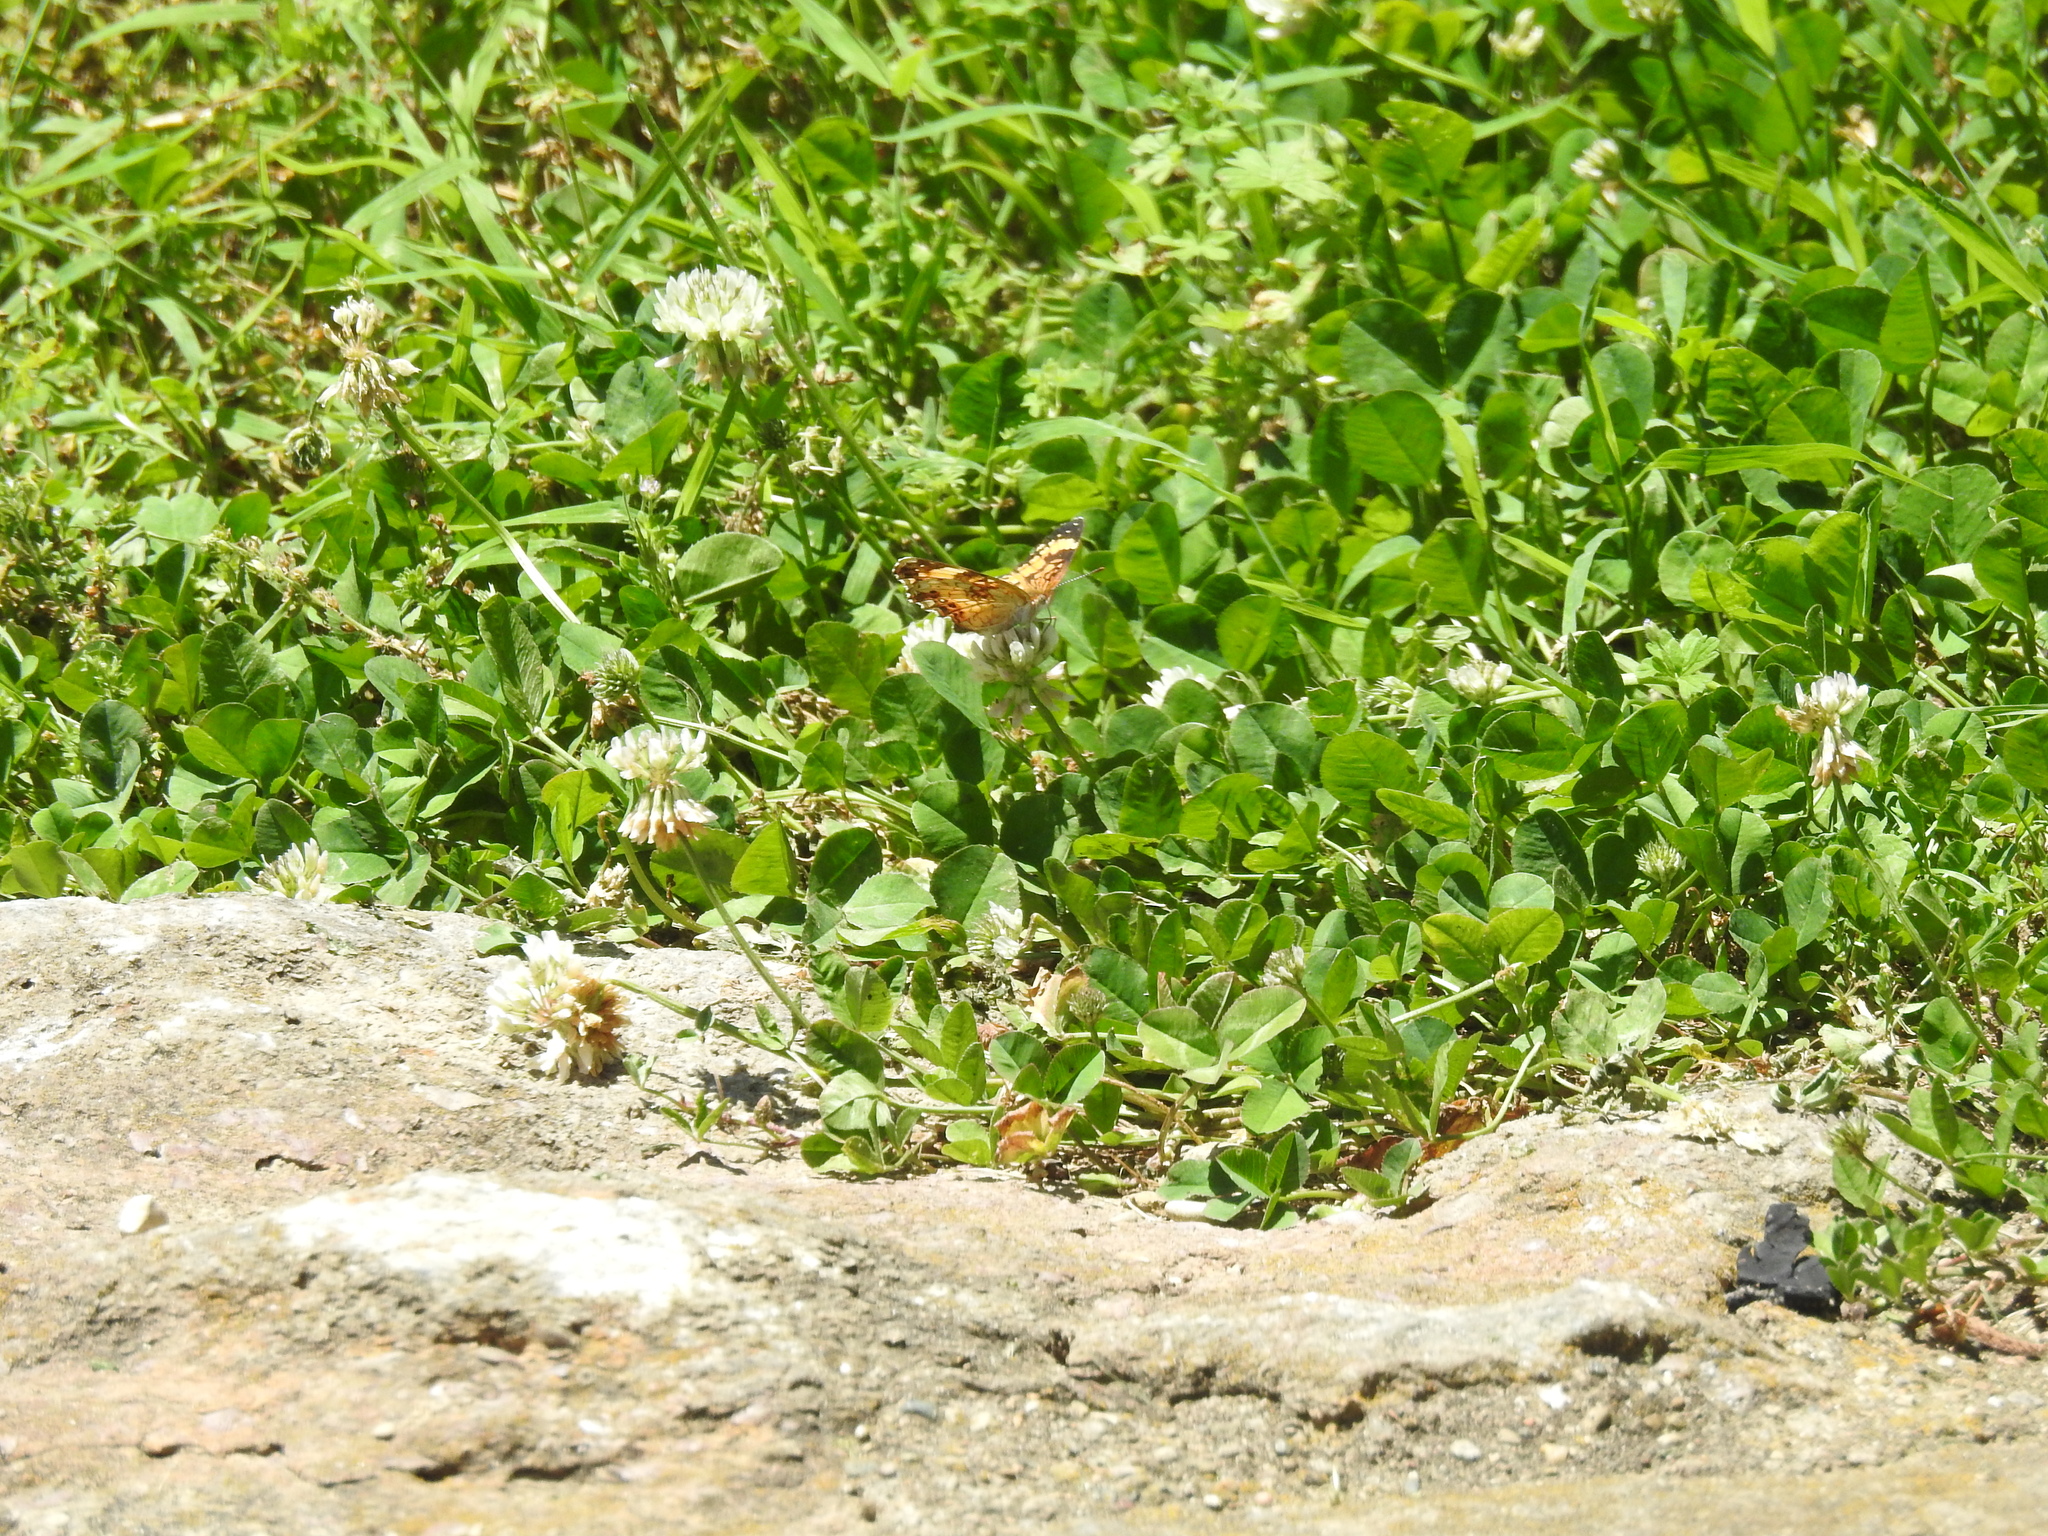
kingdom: Animalia
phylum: Arthropoda
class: Insecta
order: Lepidoptera
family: Nymphalidae
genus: Chlosyne
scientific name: Chlosyne nycteis
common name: Silvery checkerspot
